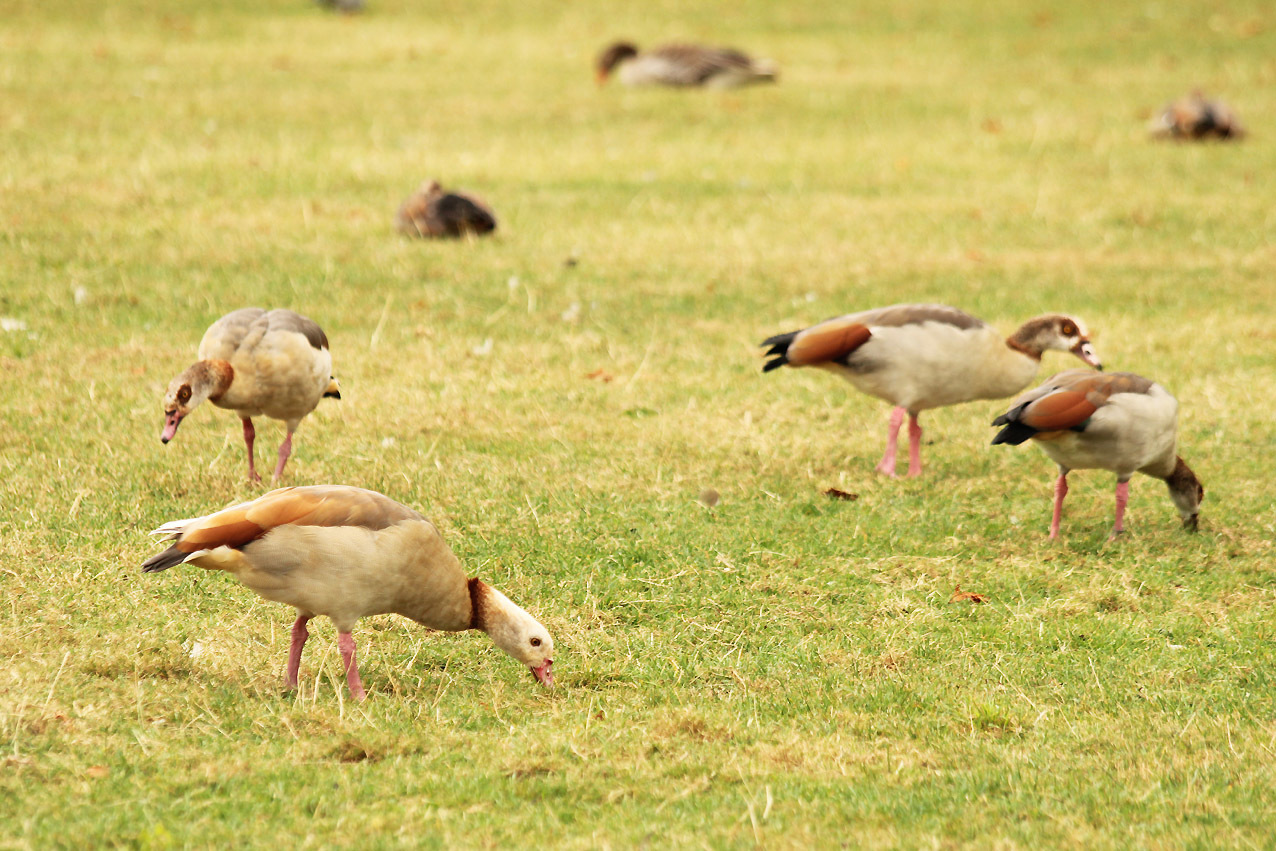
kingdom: Animalia
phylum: Chordata
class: Aves
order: Anseriformes
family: Anatidae
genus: Alopochen
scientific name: Alopochen aegyptiaca
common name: Egyptian goose
